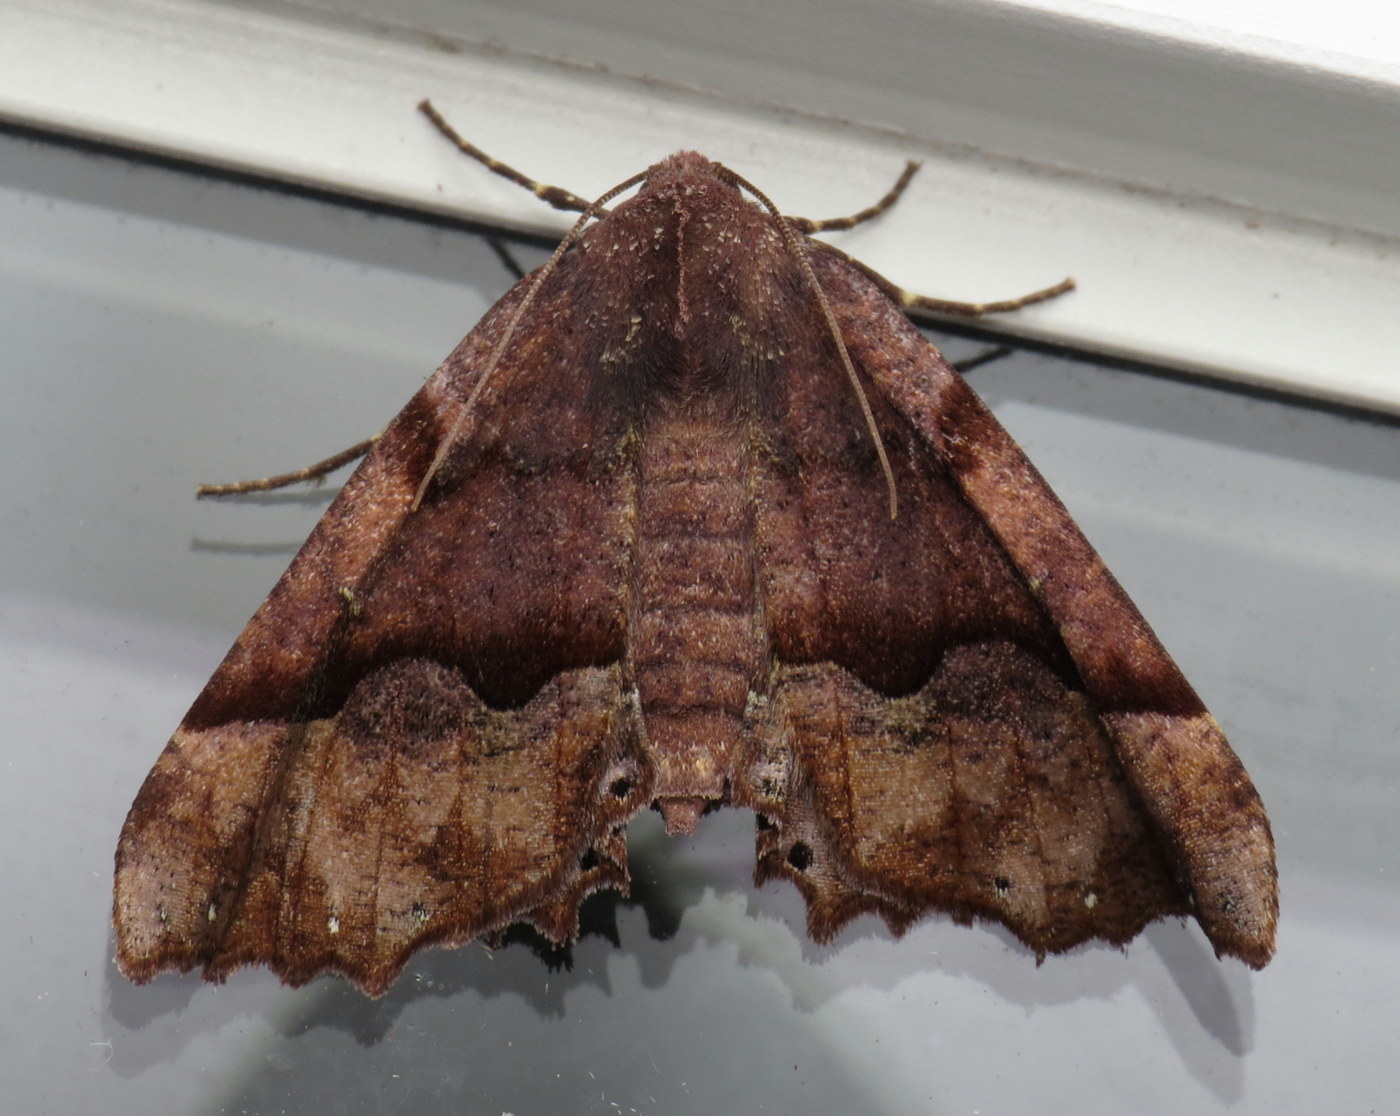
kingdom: Animalia
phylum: Arthropoda
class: Insecta
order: Lepidoptera
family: Geometridae
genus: Pero
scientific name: Pero morrisonaria
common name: Morrison's pero
